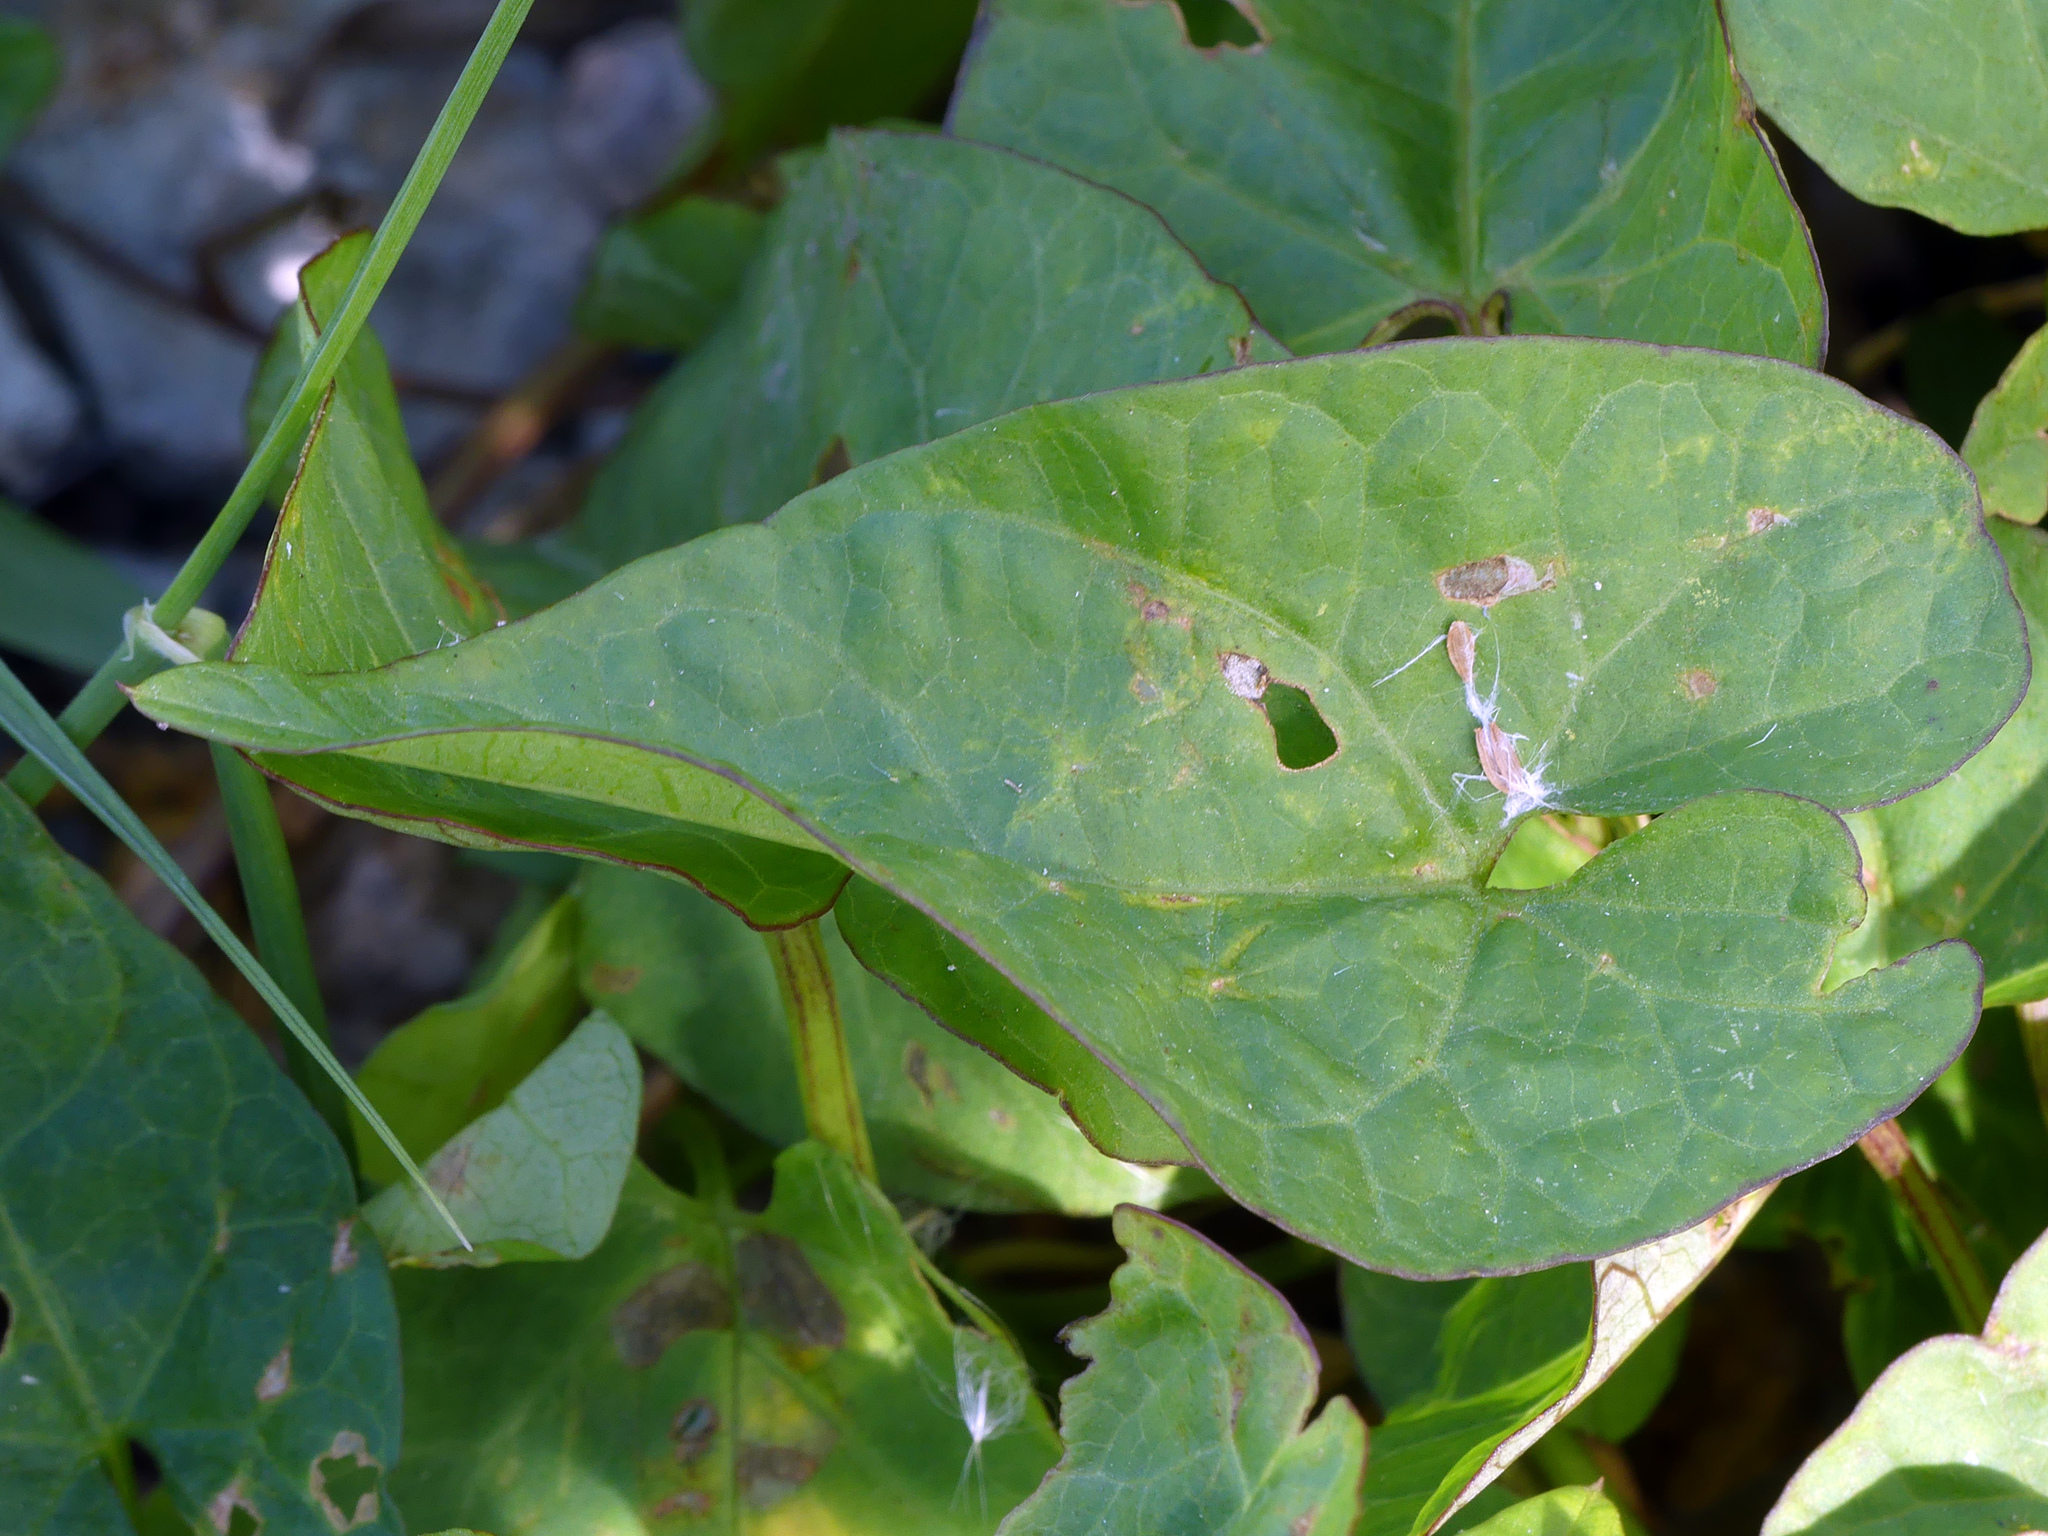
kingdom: Plantae
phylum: Tracheophyta
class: Magnoliopsida
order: Solanales
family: Convolvulaceae
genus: Calystegia
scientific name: Calystegia sepium
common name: Hedge bindweed
